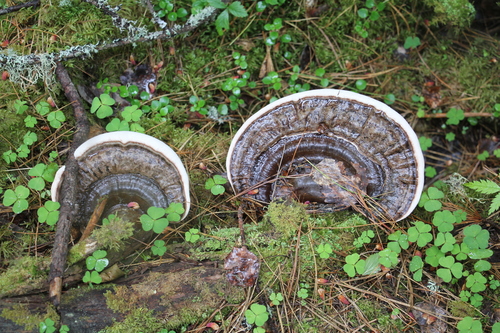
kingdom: Fungi
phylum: Basidiomycota
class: Agaricomycetes
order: Polyporales
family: Polyporaceae
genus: Ganoderma
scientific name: Ganoderma applanatum
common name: Artist's bracket
